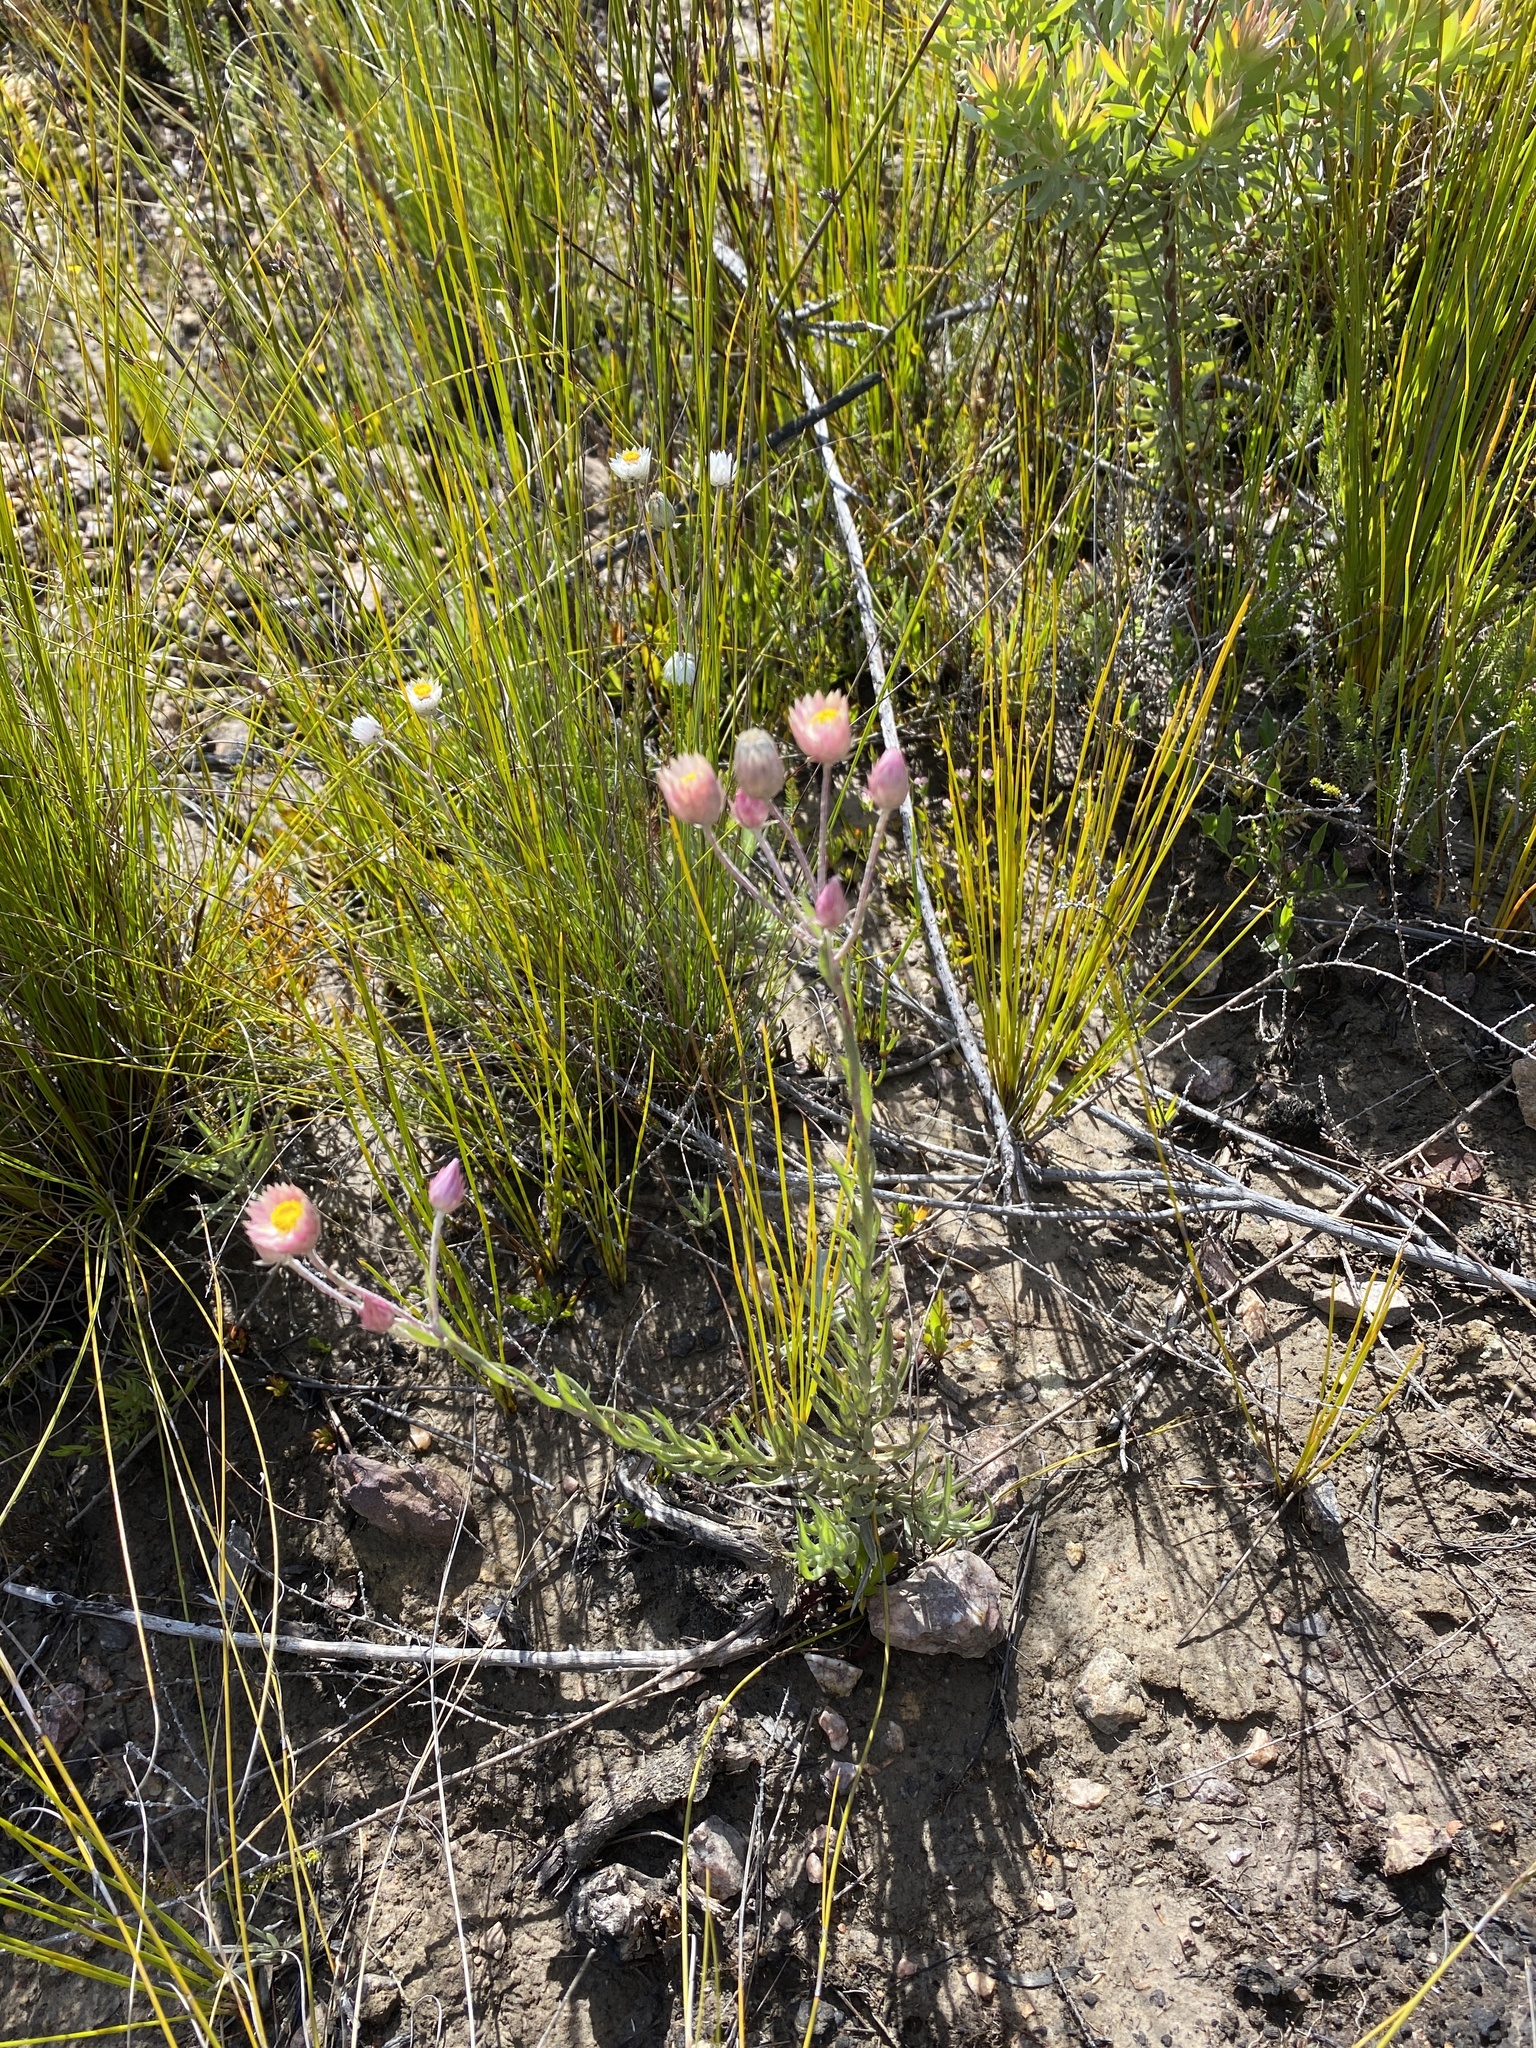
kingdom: Plantae
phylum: Tracheophyta
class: Magnoliopsida
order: Asterales
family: Asteraceae
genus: Achyranthemum
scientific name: Achyranthemum paniculatum
